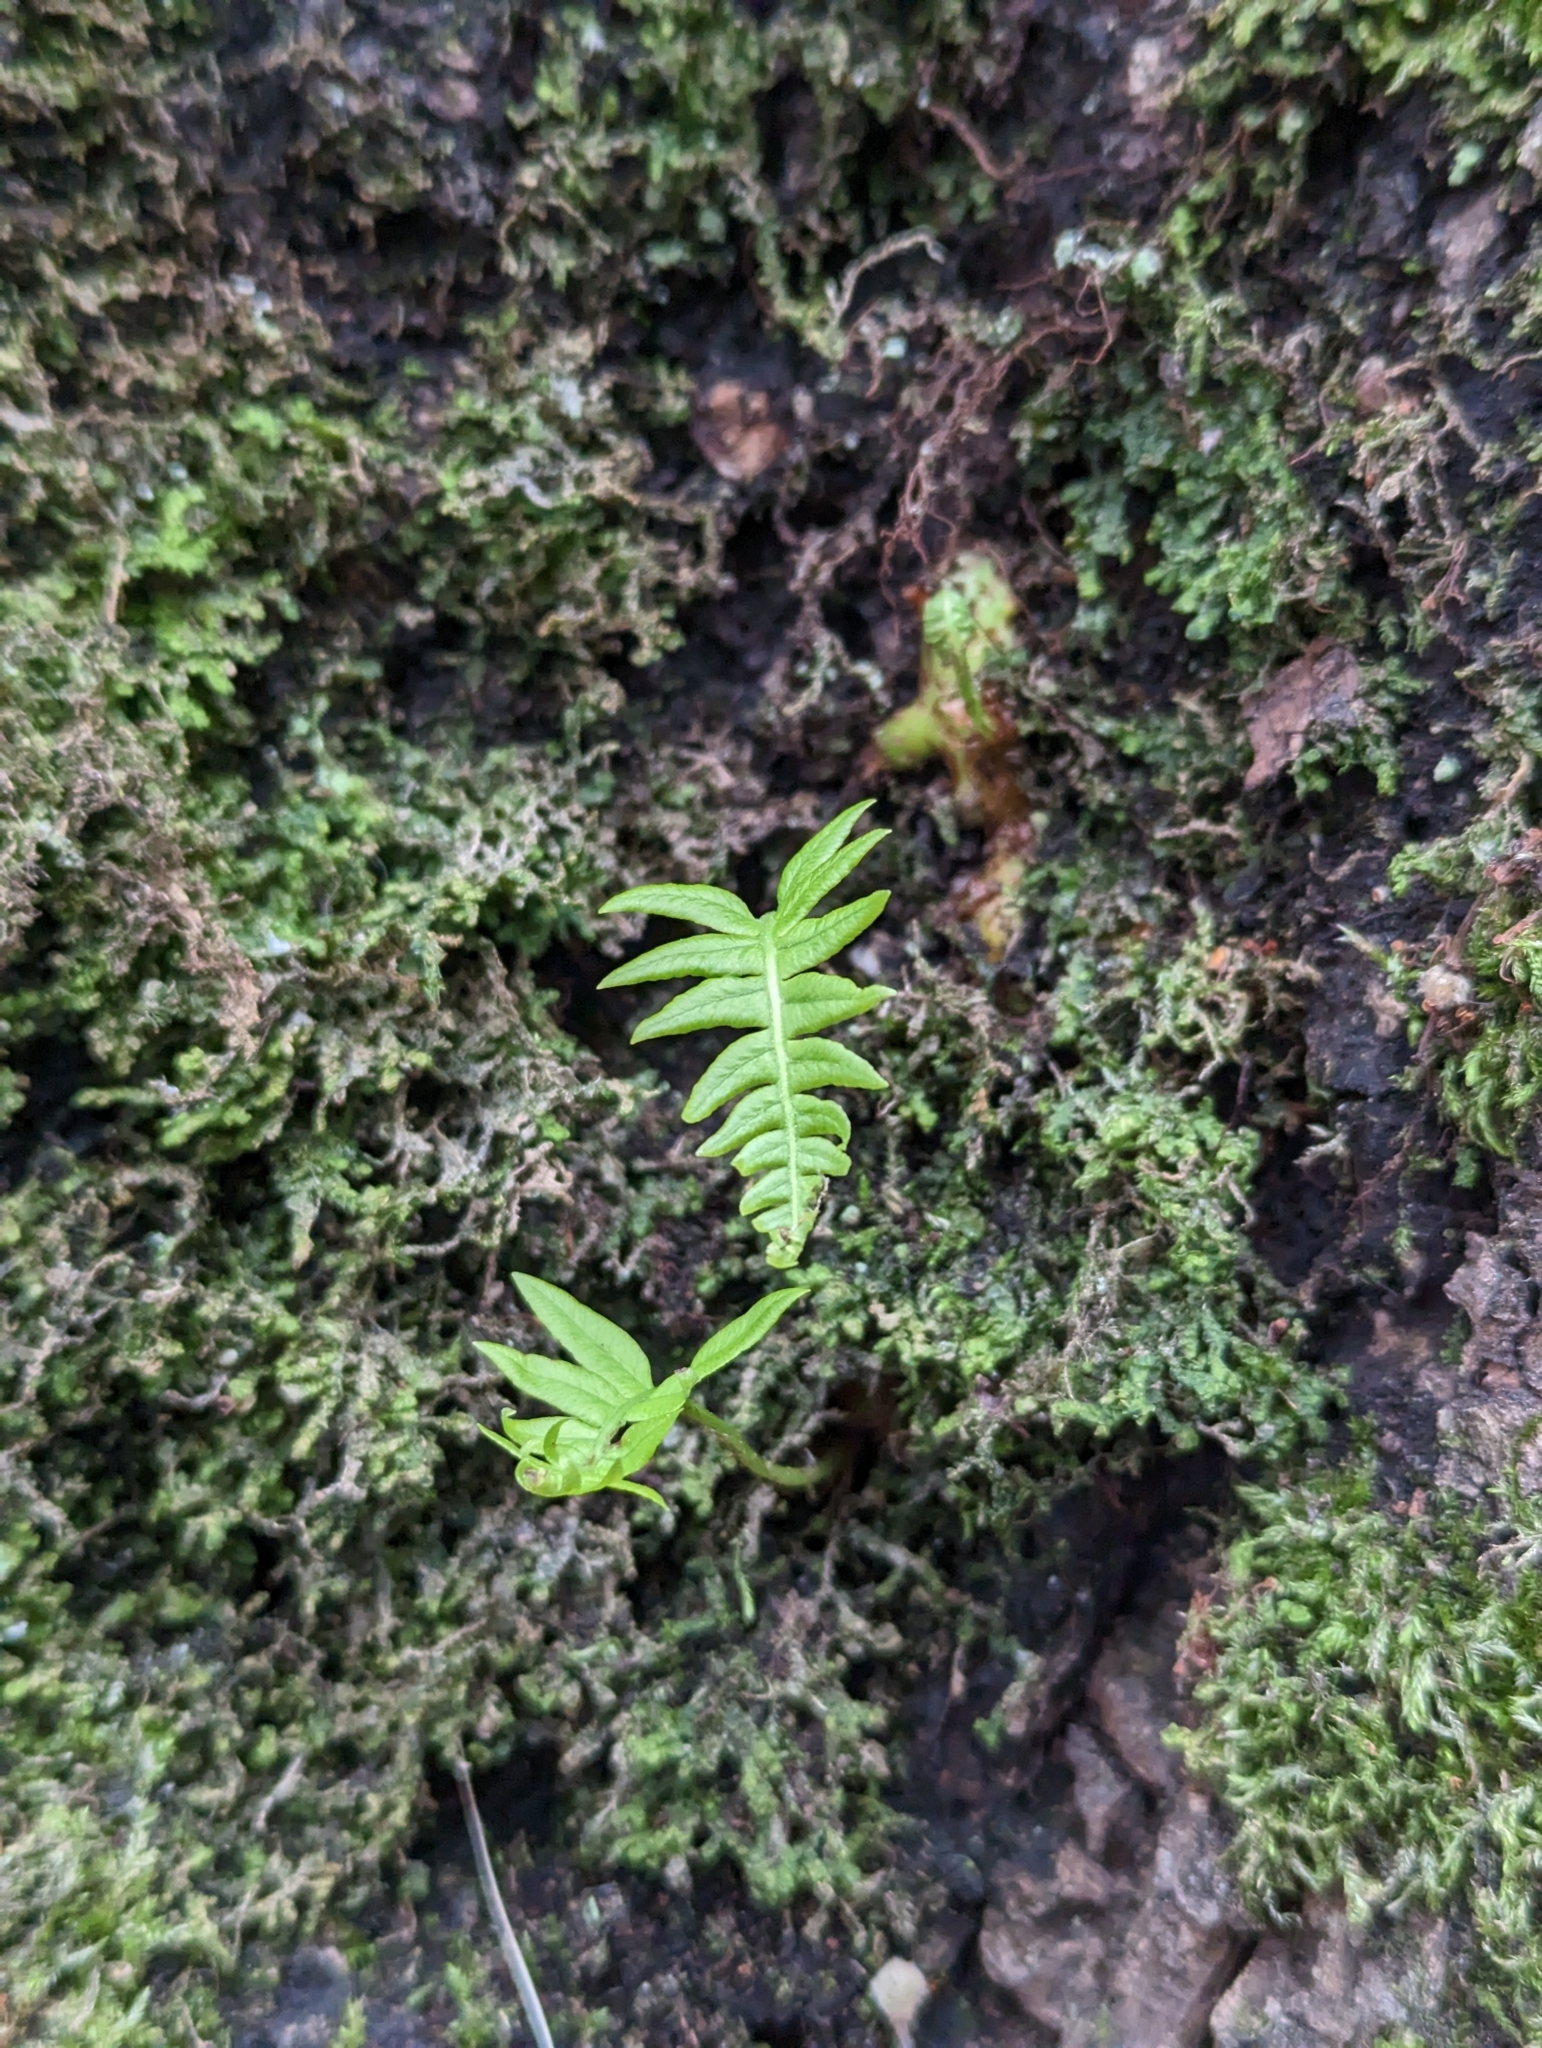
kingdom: Plantae
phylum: Tracheophyta
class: Polypodiopsida
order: Polypodiales
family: Polypodiaceae
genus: Polypodium
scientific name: Polypodium glycyrrhiza
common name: Licorice fern
